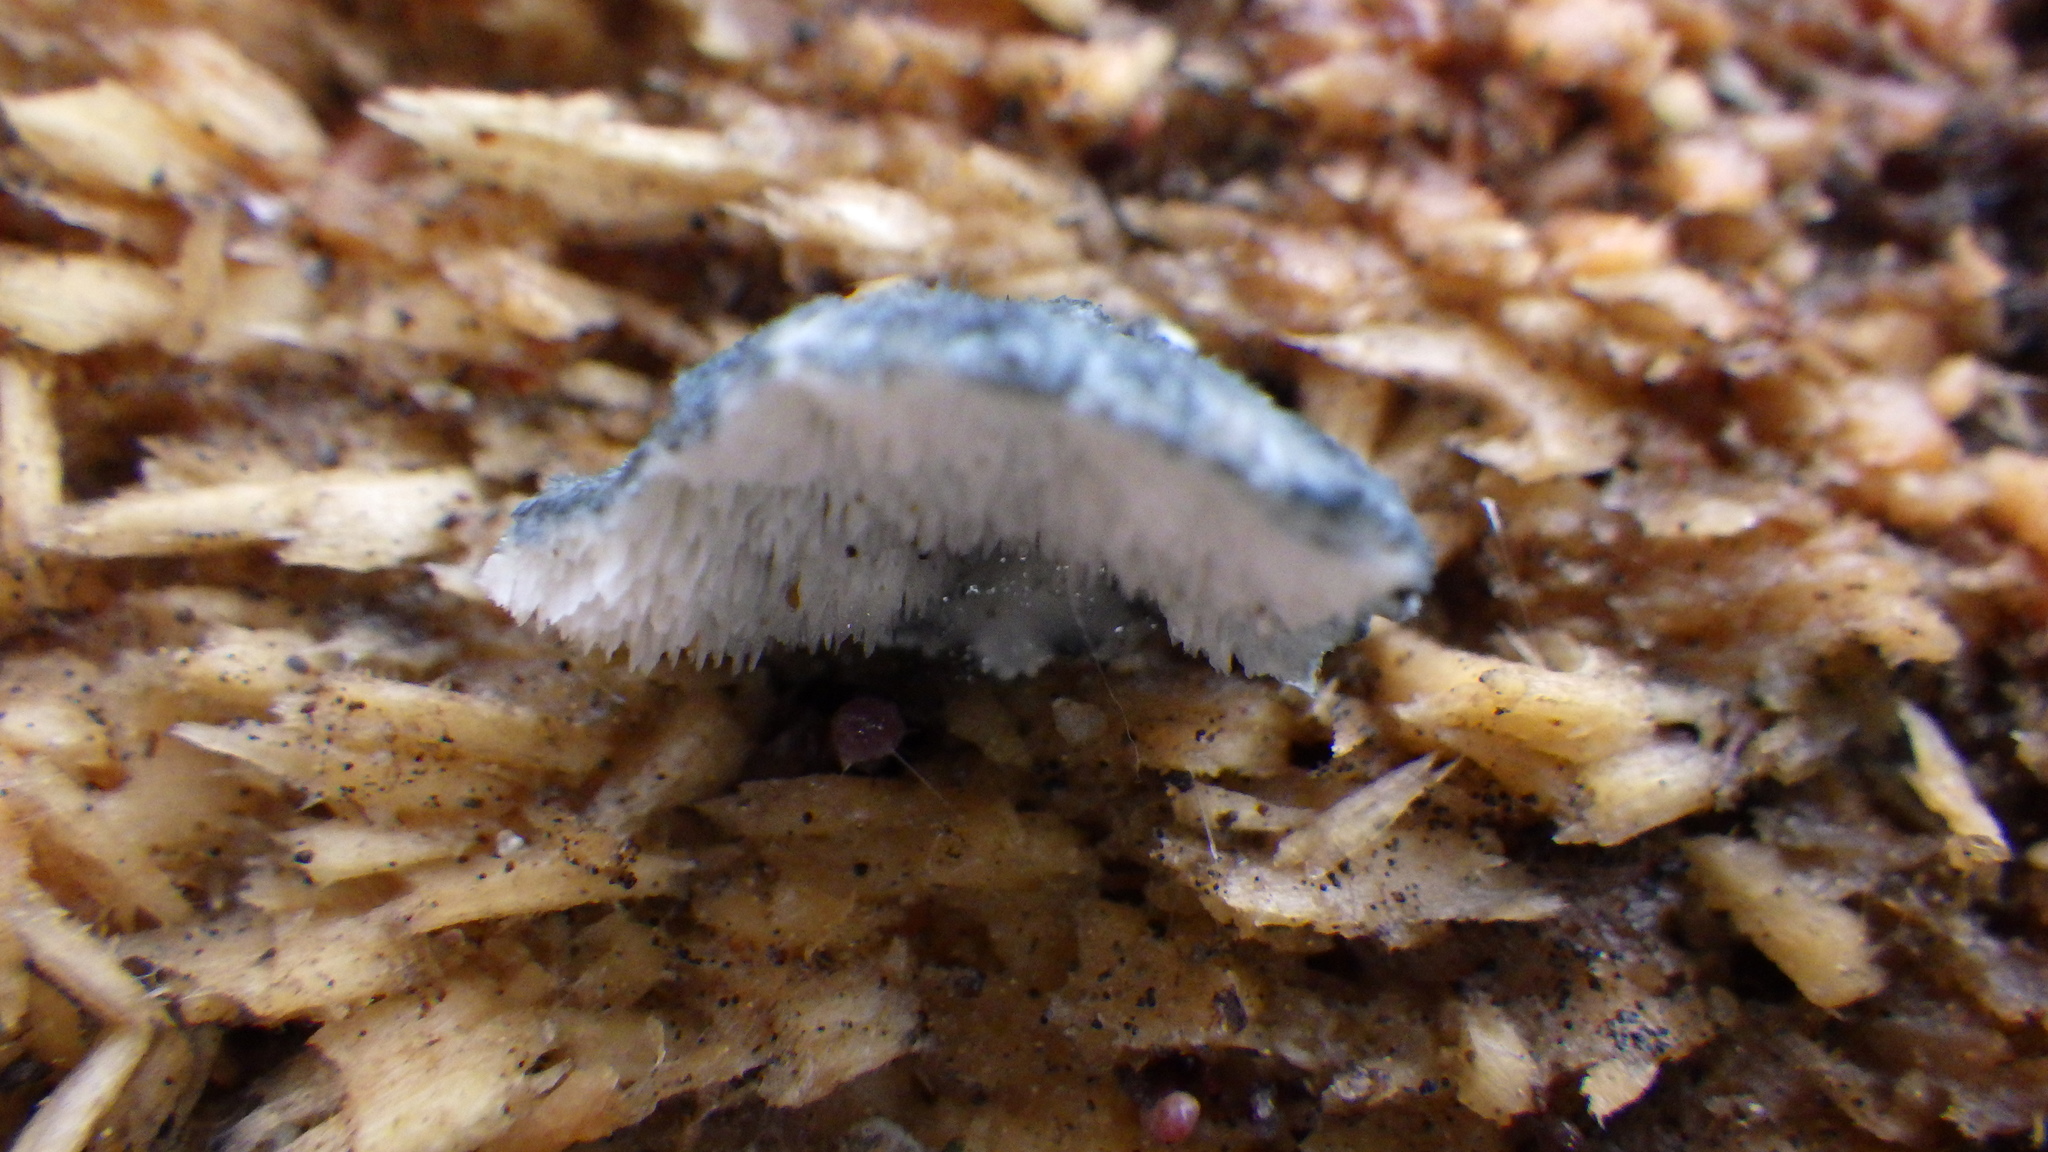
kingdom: Fungi
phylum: Basidiomycota
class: Agaricomycetes
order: Polyporales
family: Polyporaceae
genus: Cyanosporus
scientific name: Cyanosporus caesius
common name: Blue cheese polypore
